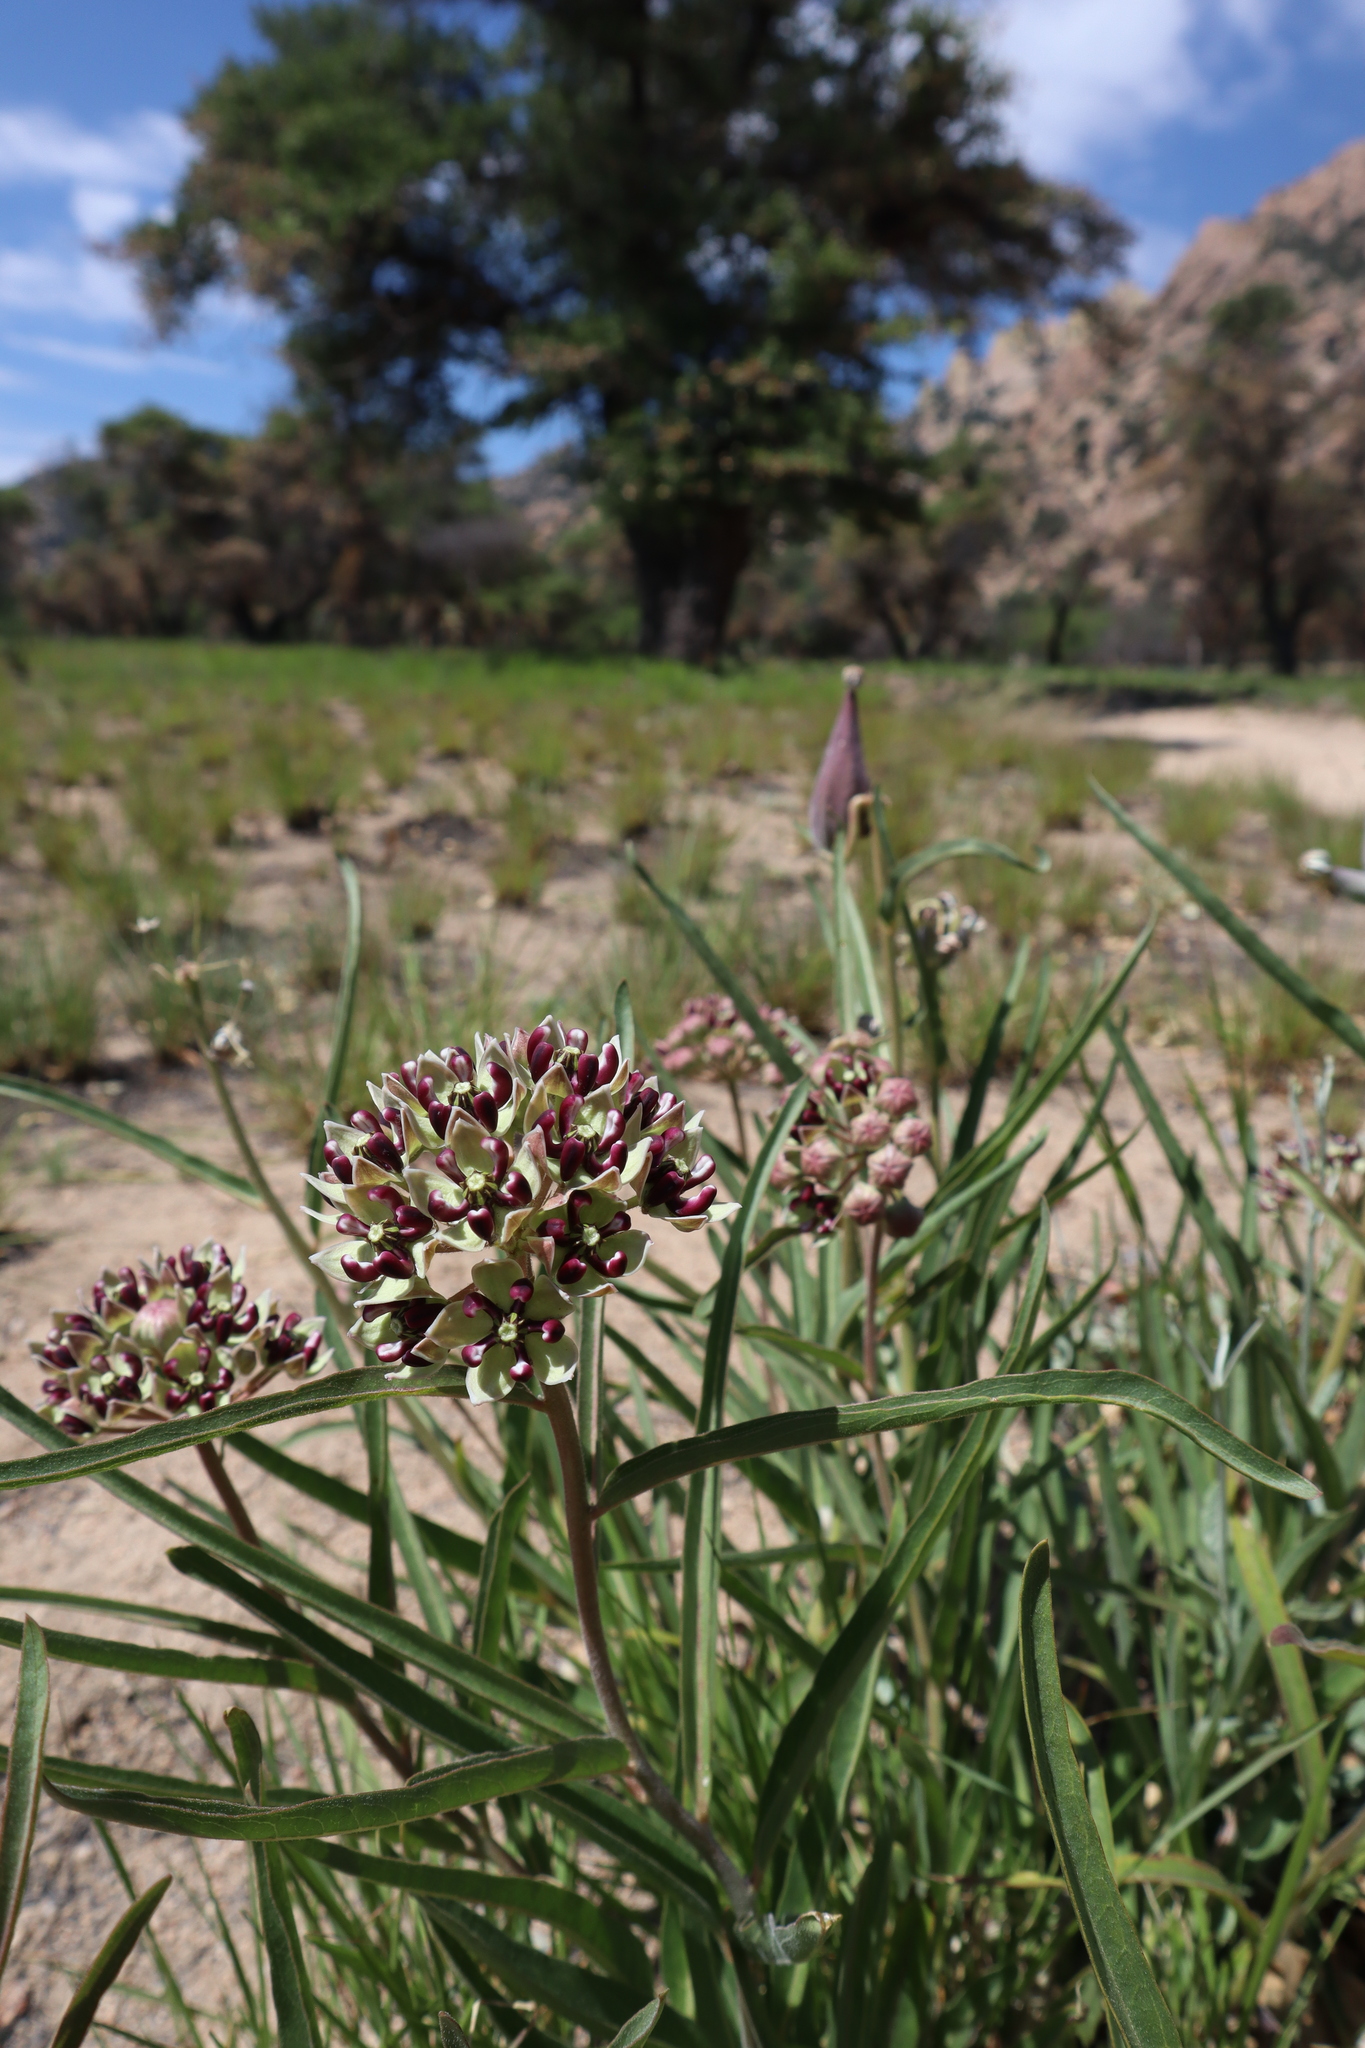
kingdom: Plantae
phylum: Tracheophyta
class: Magnoliopsida
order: Gentianales
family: Apocynaceae
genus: Asclepias
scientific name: Asclepias asperula
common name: Antelope horns
